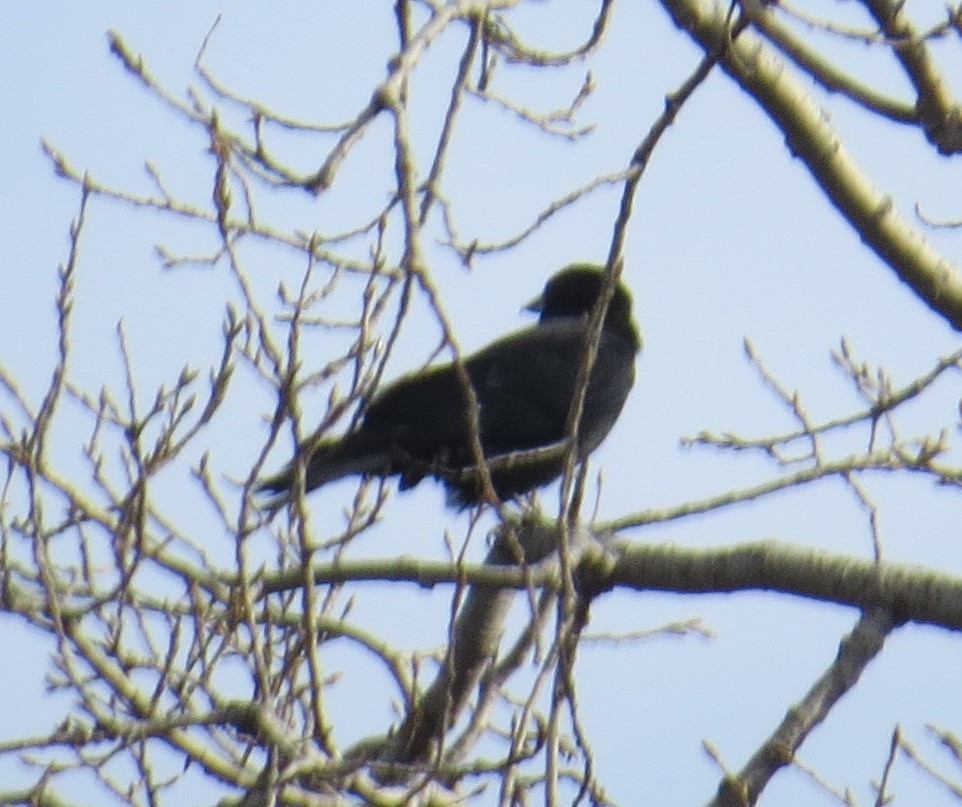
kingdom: Animalia
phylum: Chordata
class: Aves
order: Passeriformes
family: Corvidae
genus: Corvus
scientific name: Corvus brachyrhynchos
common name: American crow
